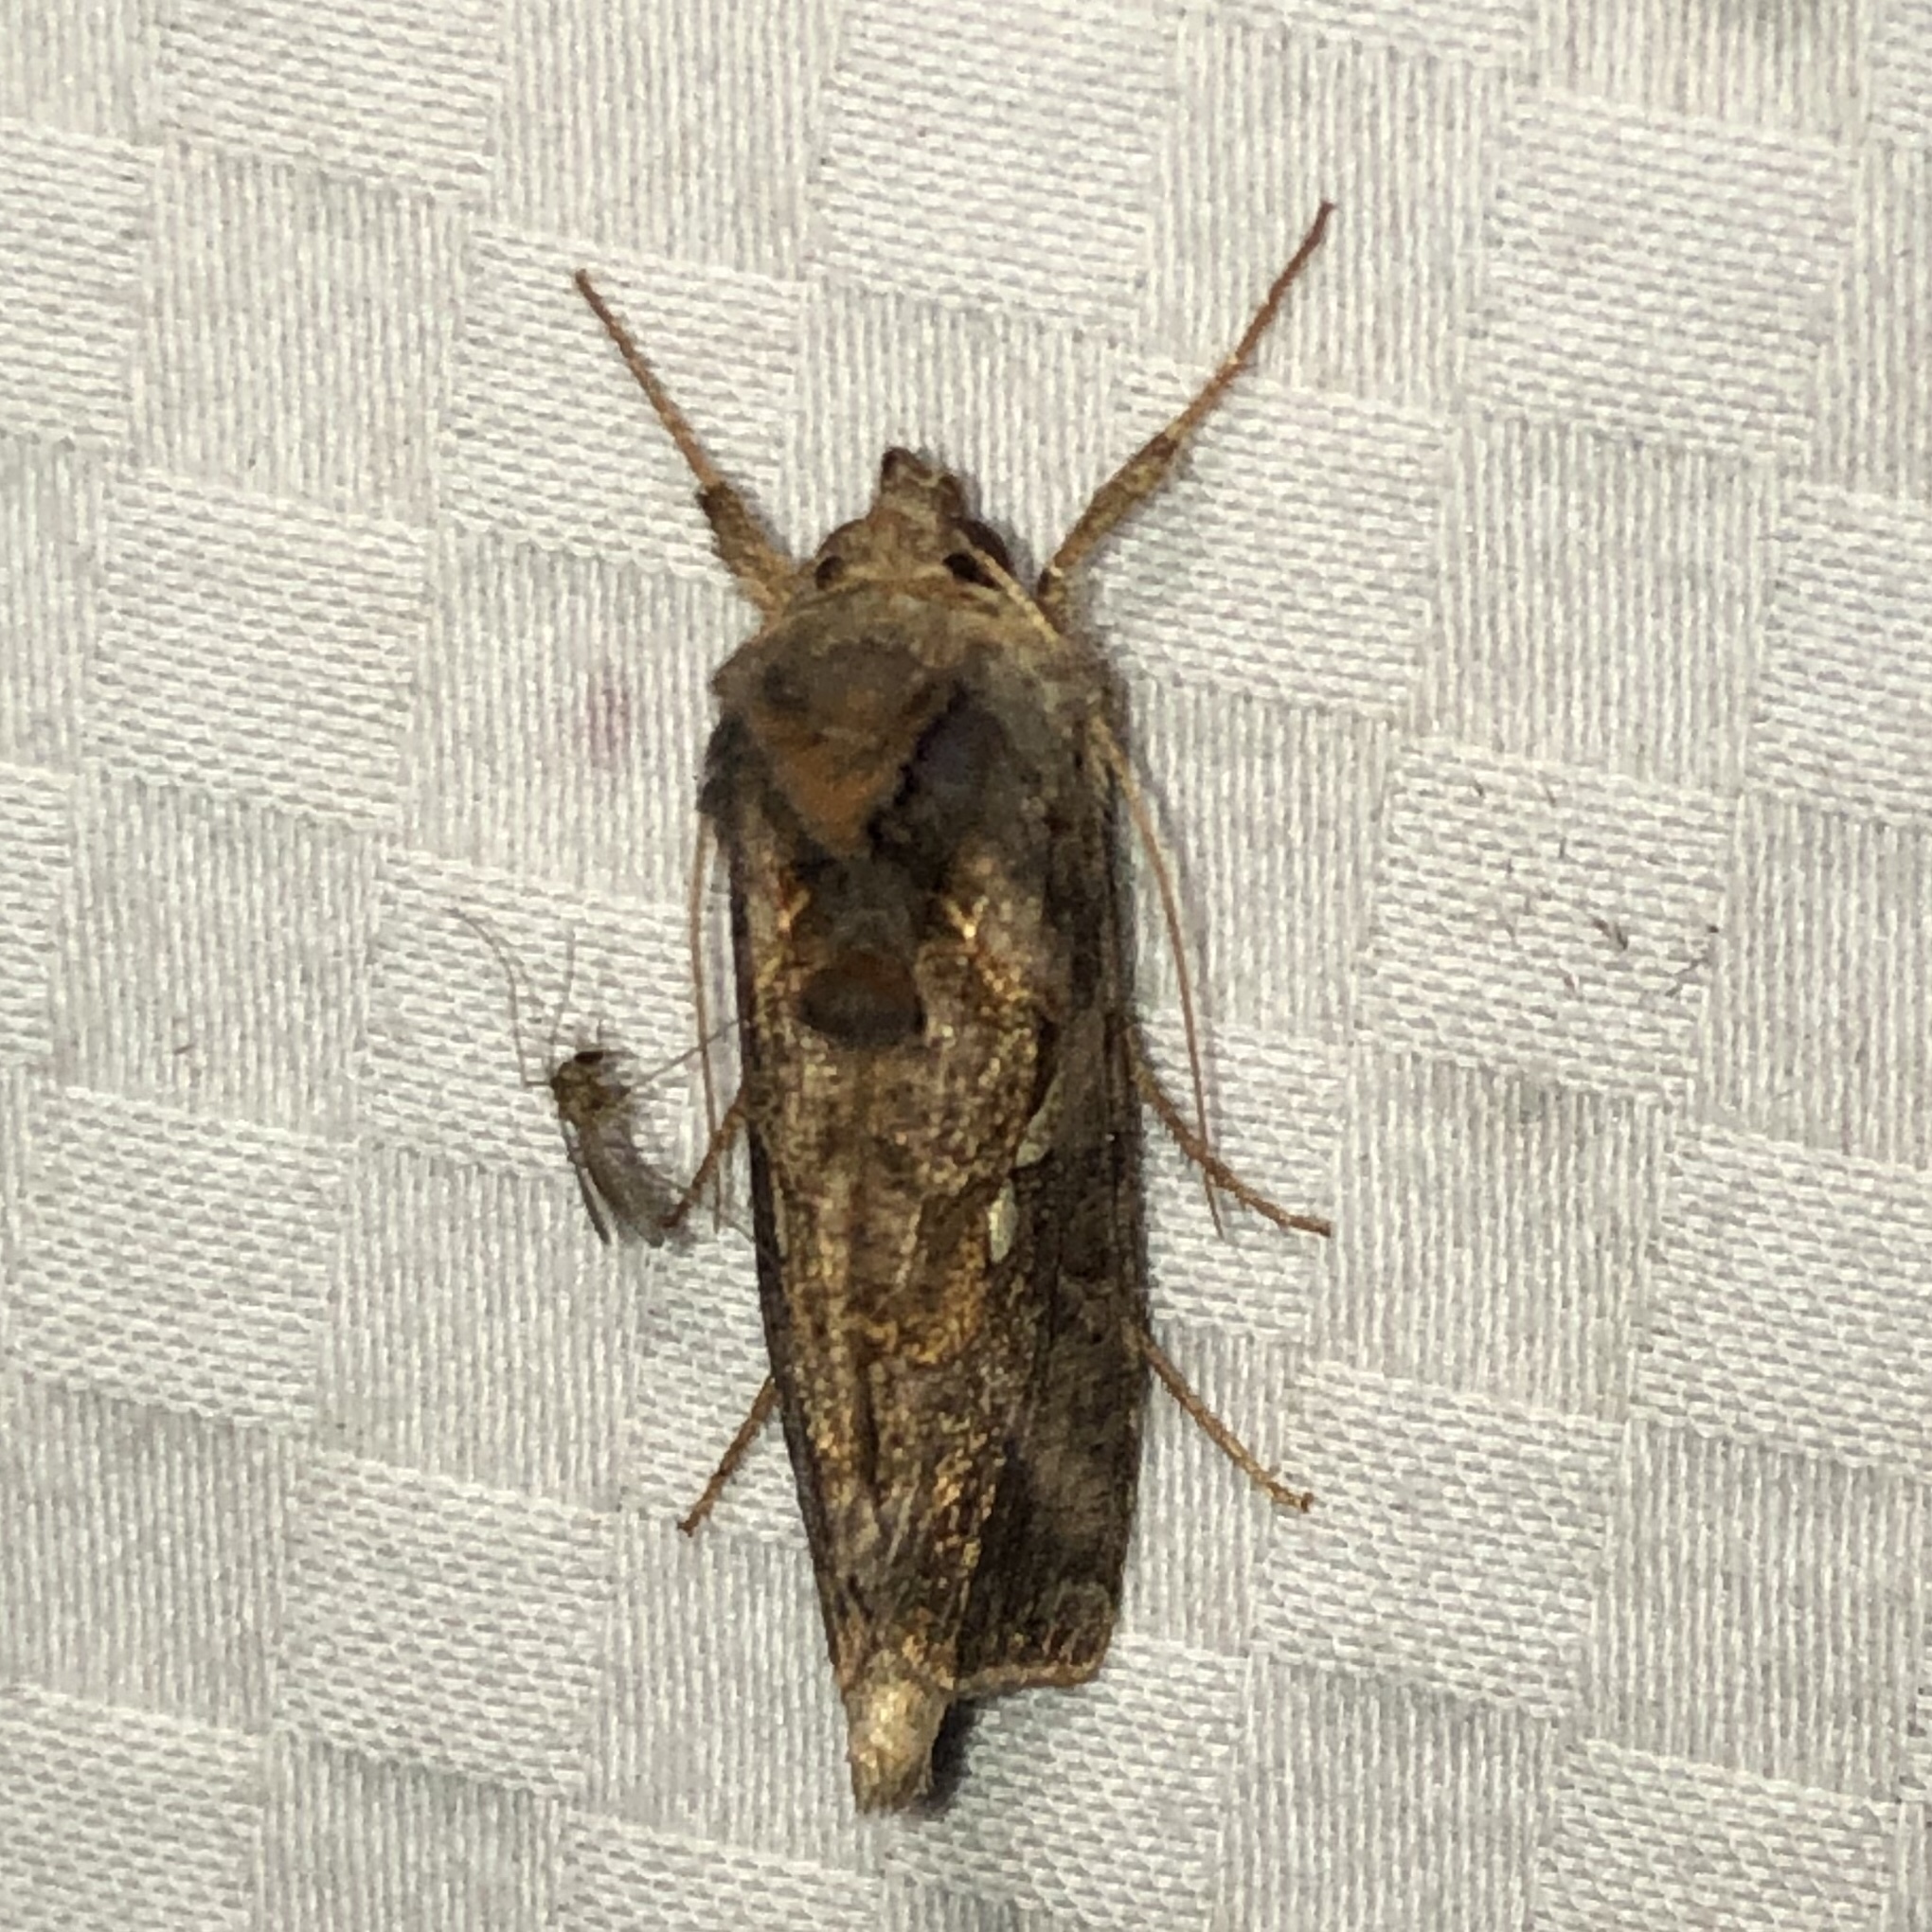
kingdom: Animalia
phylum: Arthropoda
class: Insecta
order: Lepidoptera
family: Noctuidae
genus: Autographa
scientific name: Autographa precationis
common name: Common looper moth
